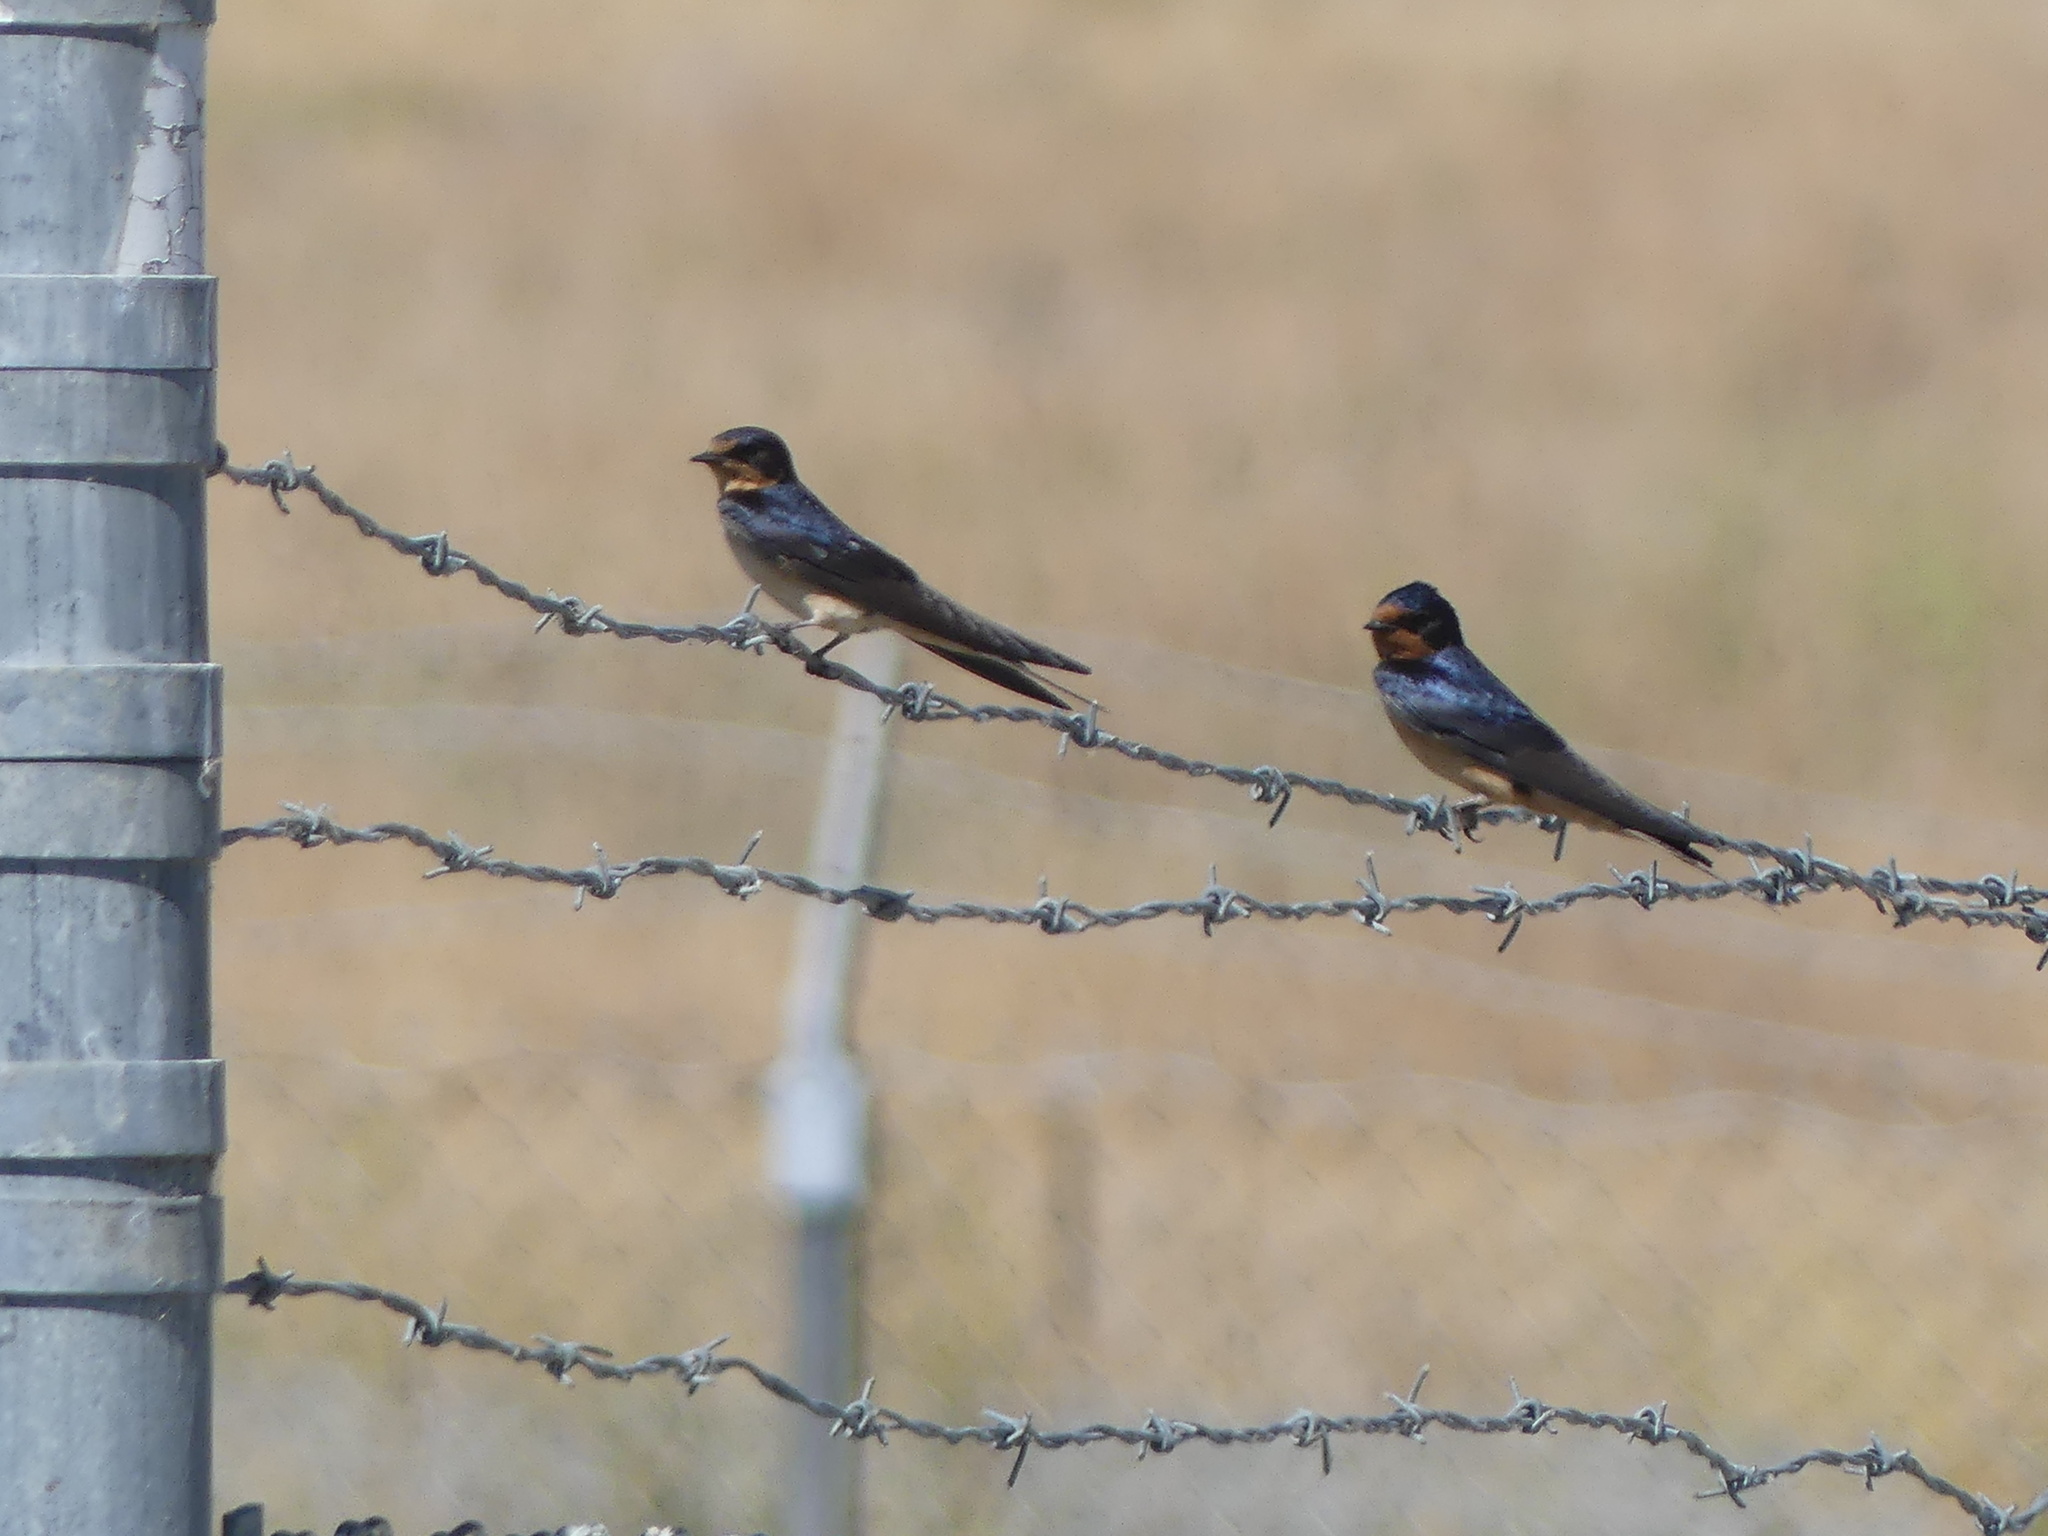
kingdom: Animalia
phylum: Chordata
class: Aves
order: Passeriformes
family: Hirundinidae
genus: Hirundo
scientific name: Hirundo rustica
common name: Barn swallow
